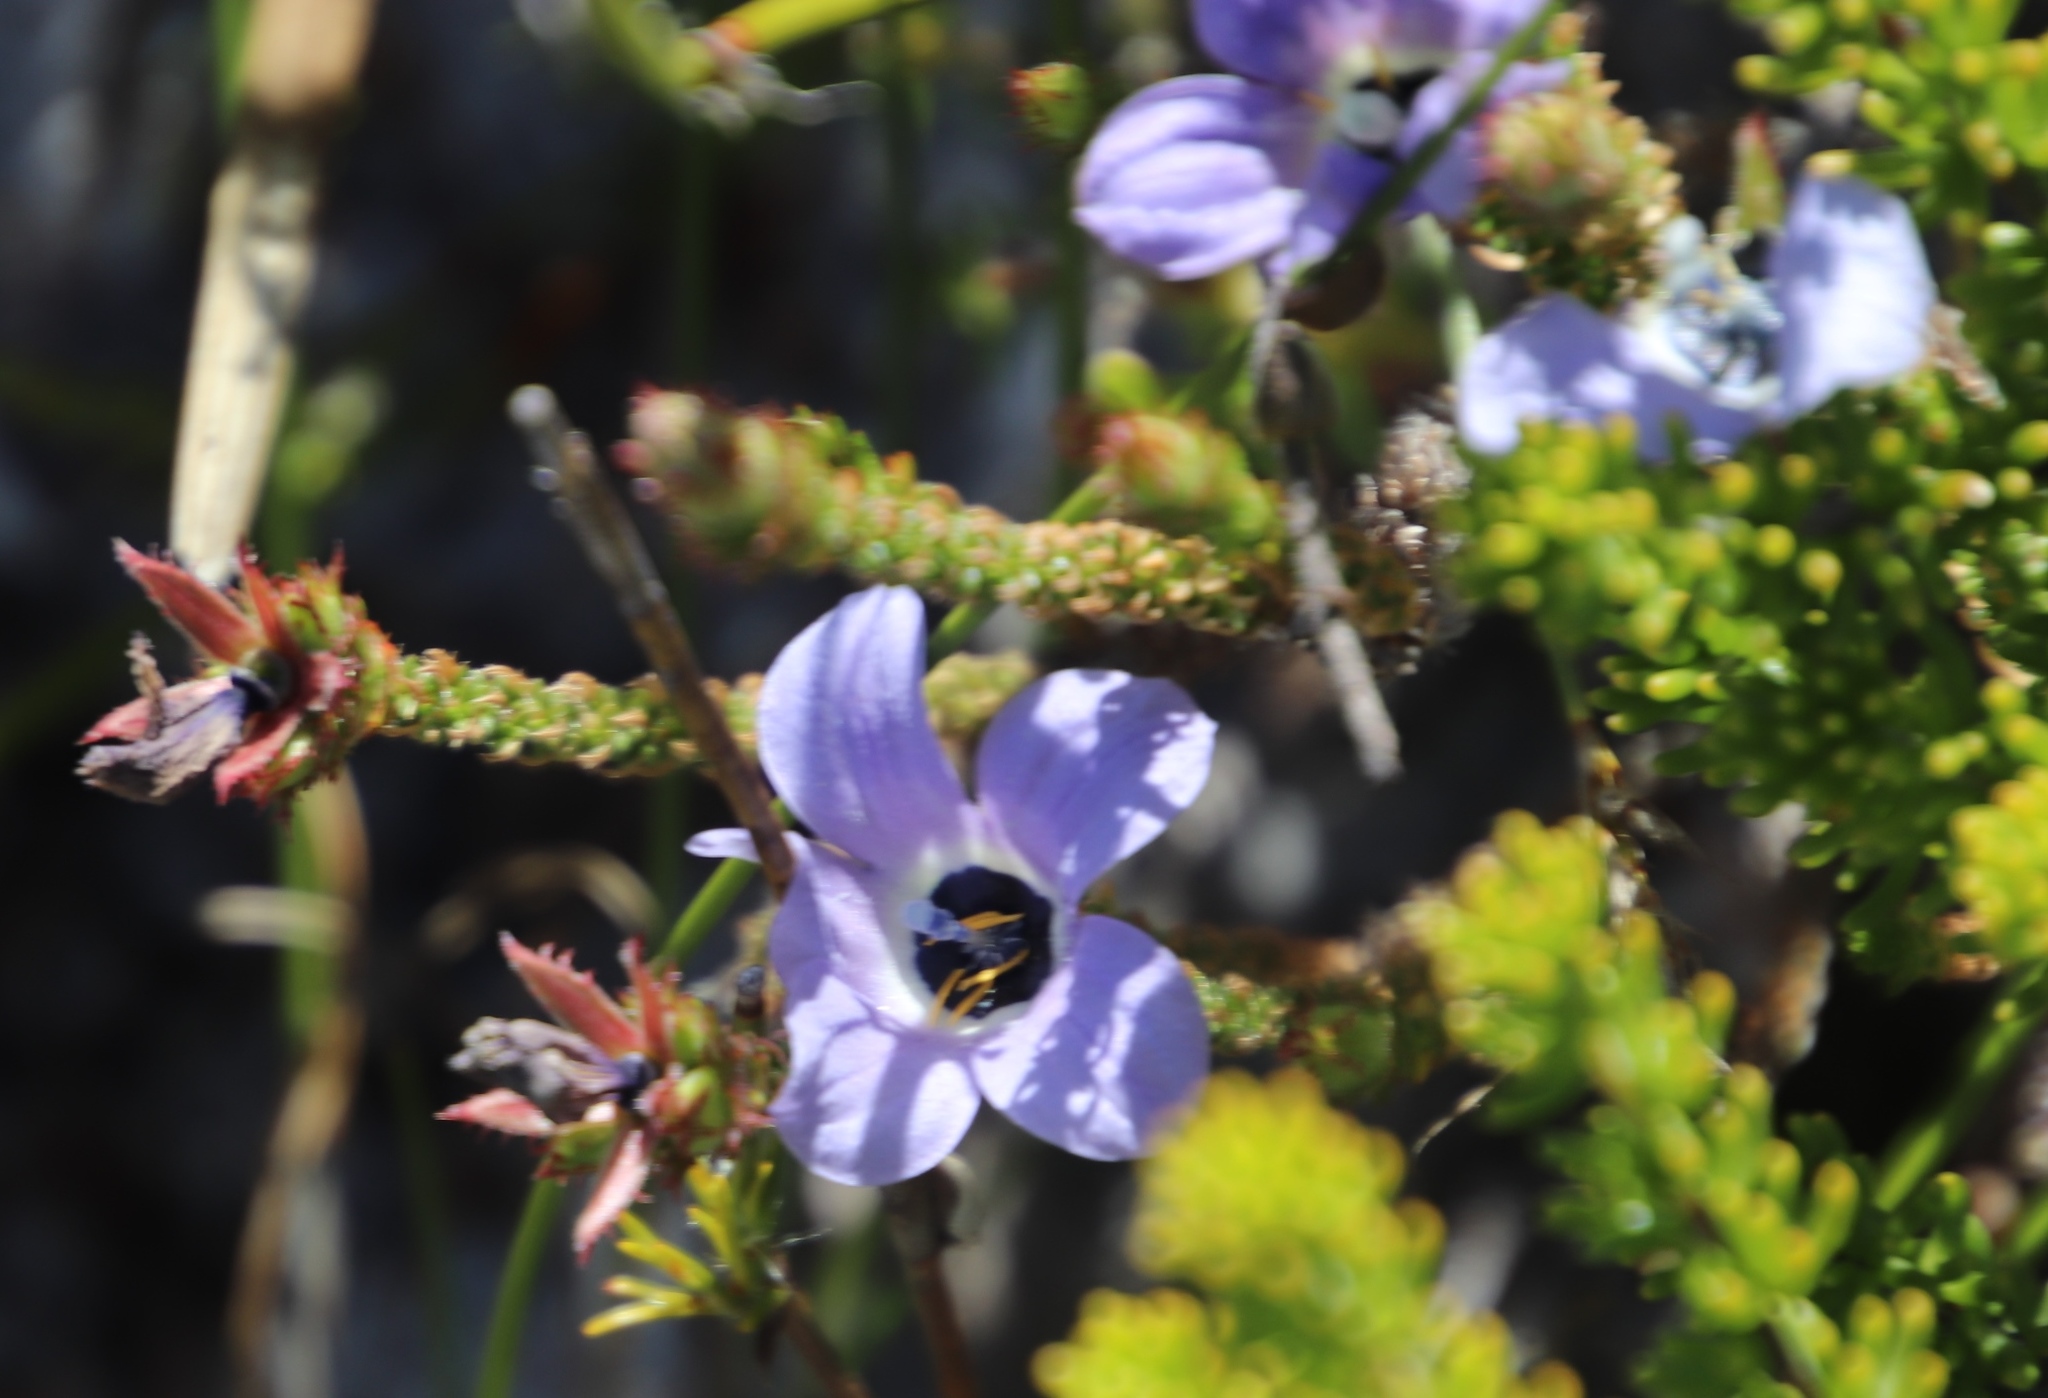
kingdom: Plantae
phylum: Tracheophyta
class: Magnoliopsida
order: Asterales
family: Campanulaceae
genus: Roella
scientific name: Roella triflora
